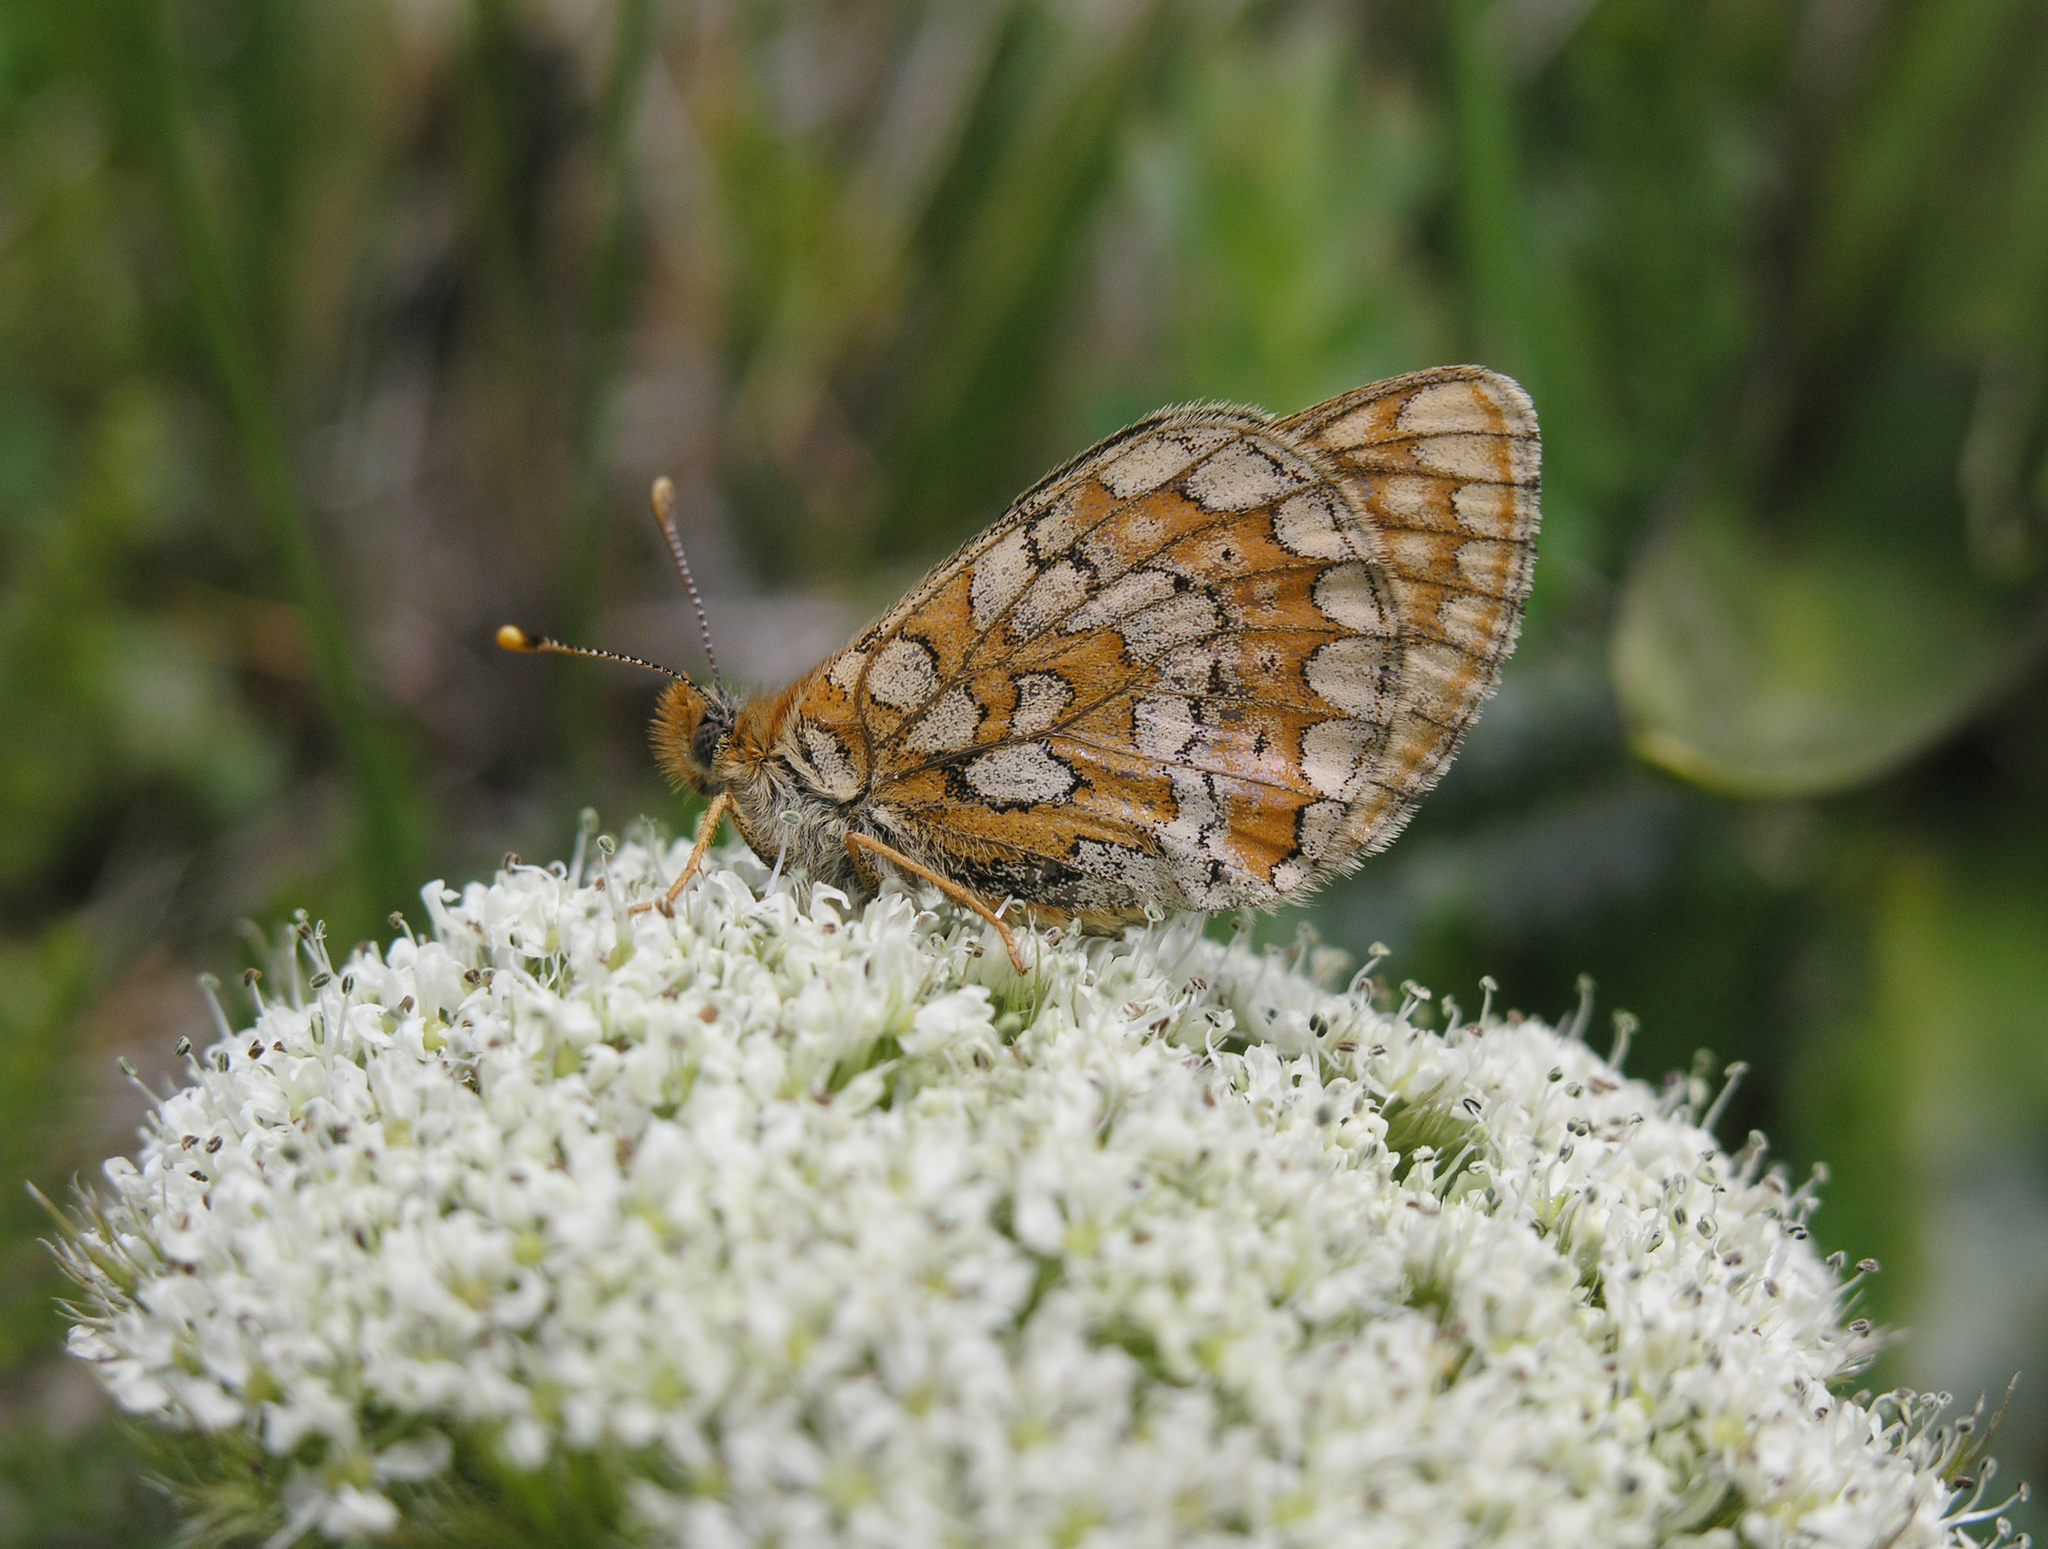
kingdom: Animalia
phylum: Arthropoda
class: Insecta
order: Lepidoptera
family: Nymphalidae
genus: Euphydryas
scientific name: Euphydryas aurinia
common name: Marsh fritillary
